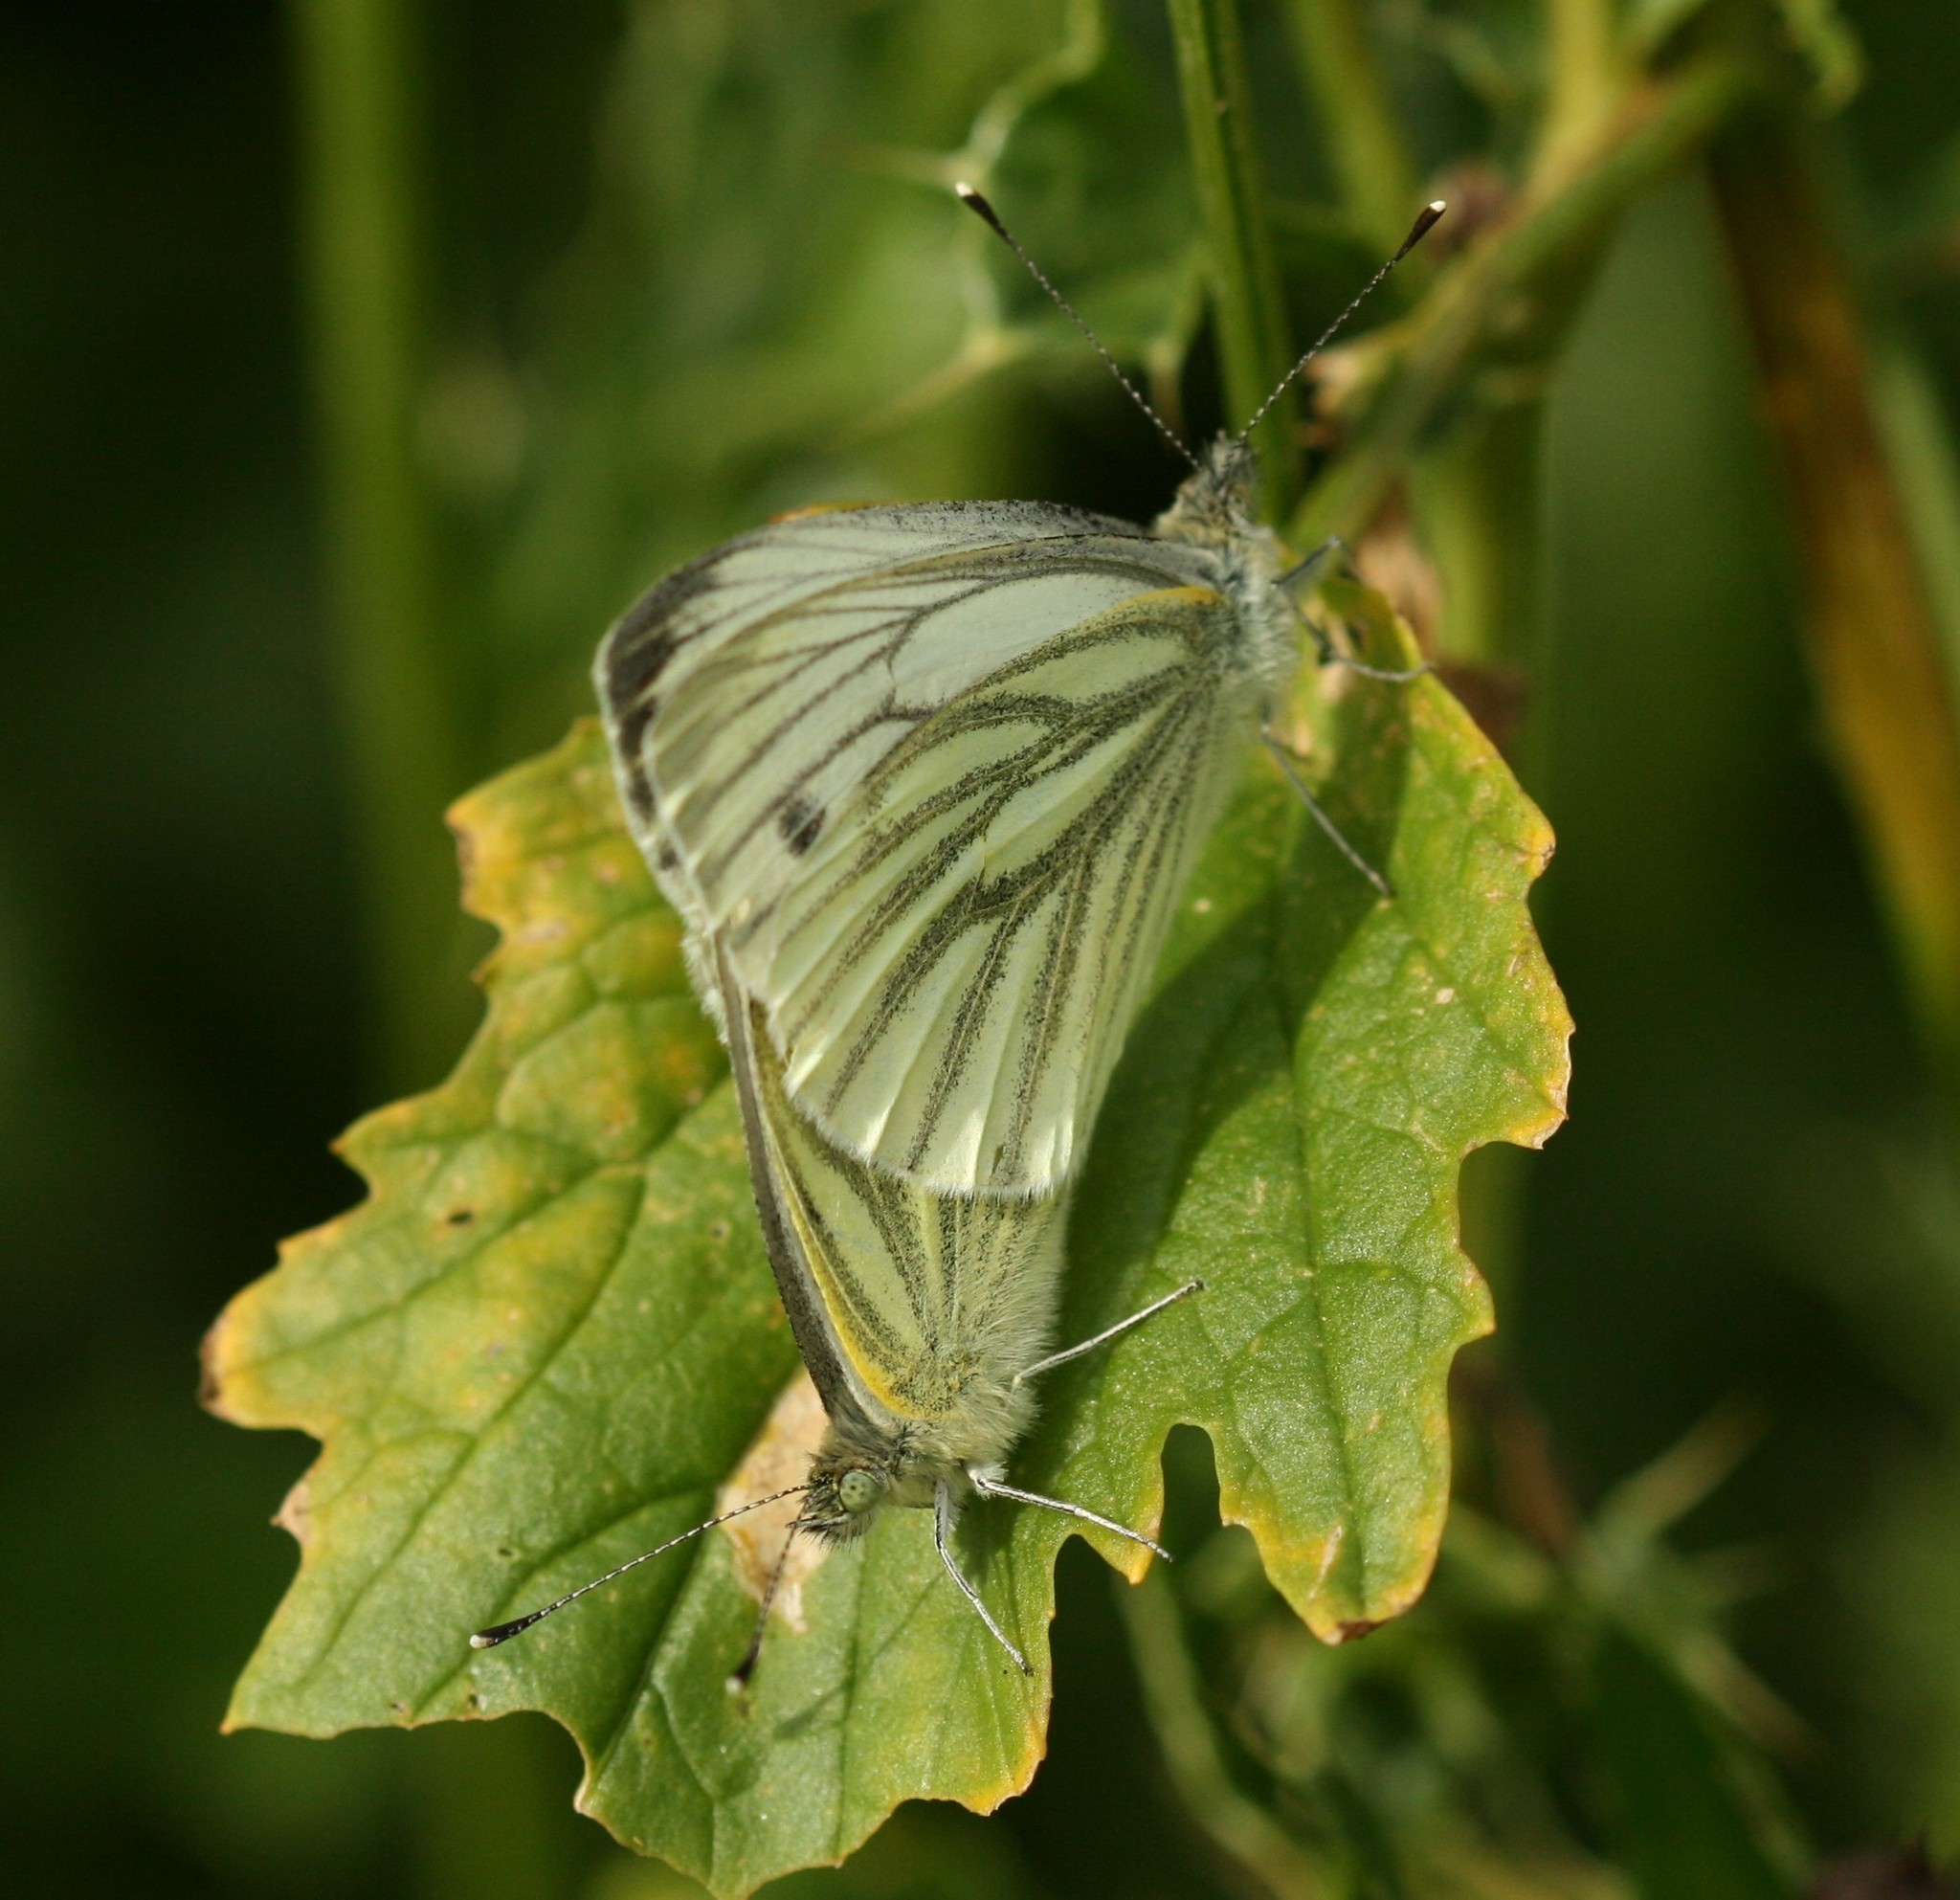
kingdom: Animalia
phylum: Arthropoda
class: Insecta
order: Lepidoptera
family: Pieridae
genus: Pieris
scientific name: Pieris napi
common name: Green-veined white
